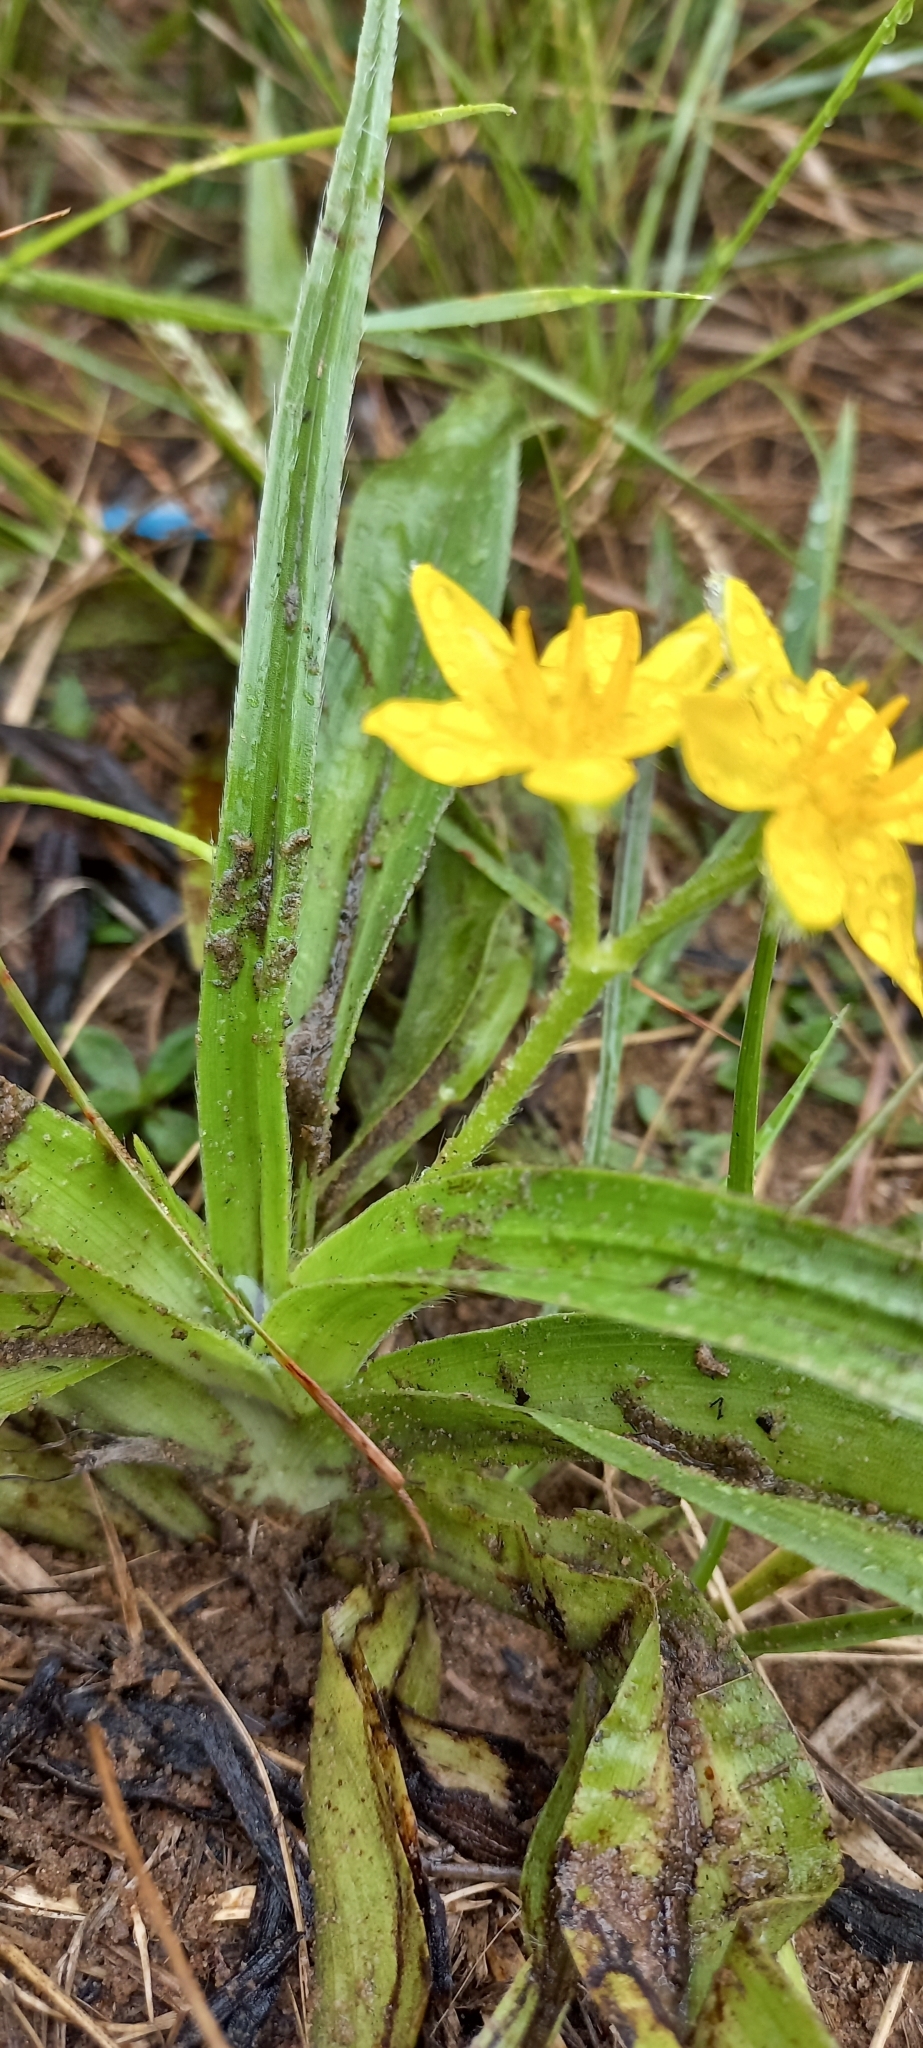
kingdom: Plantae
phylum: Tracheophyta
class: Liliopsida
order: Asparagales
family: Hypoxidaceae
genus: Hypoxis
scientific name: Hypoxis hemerocallidea
